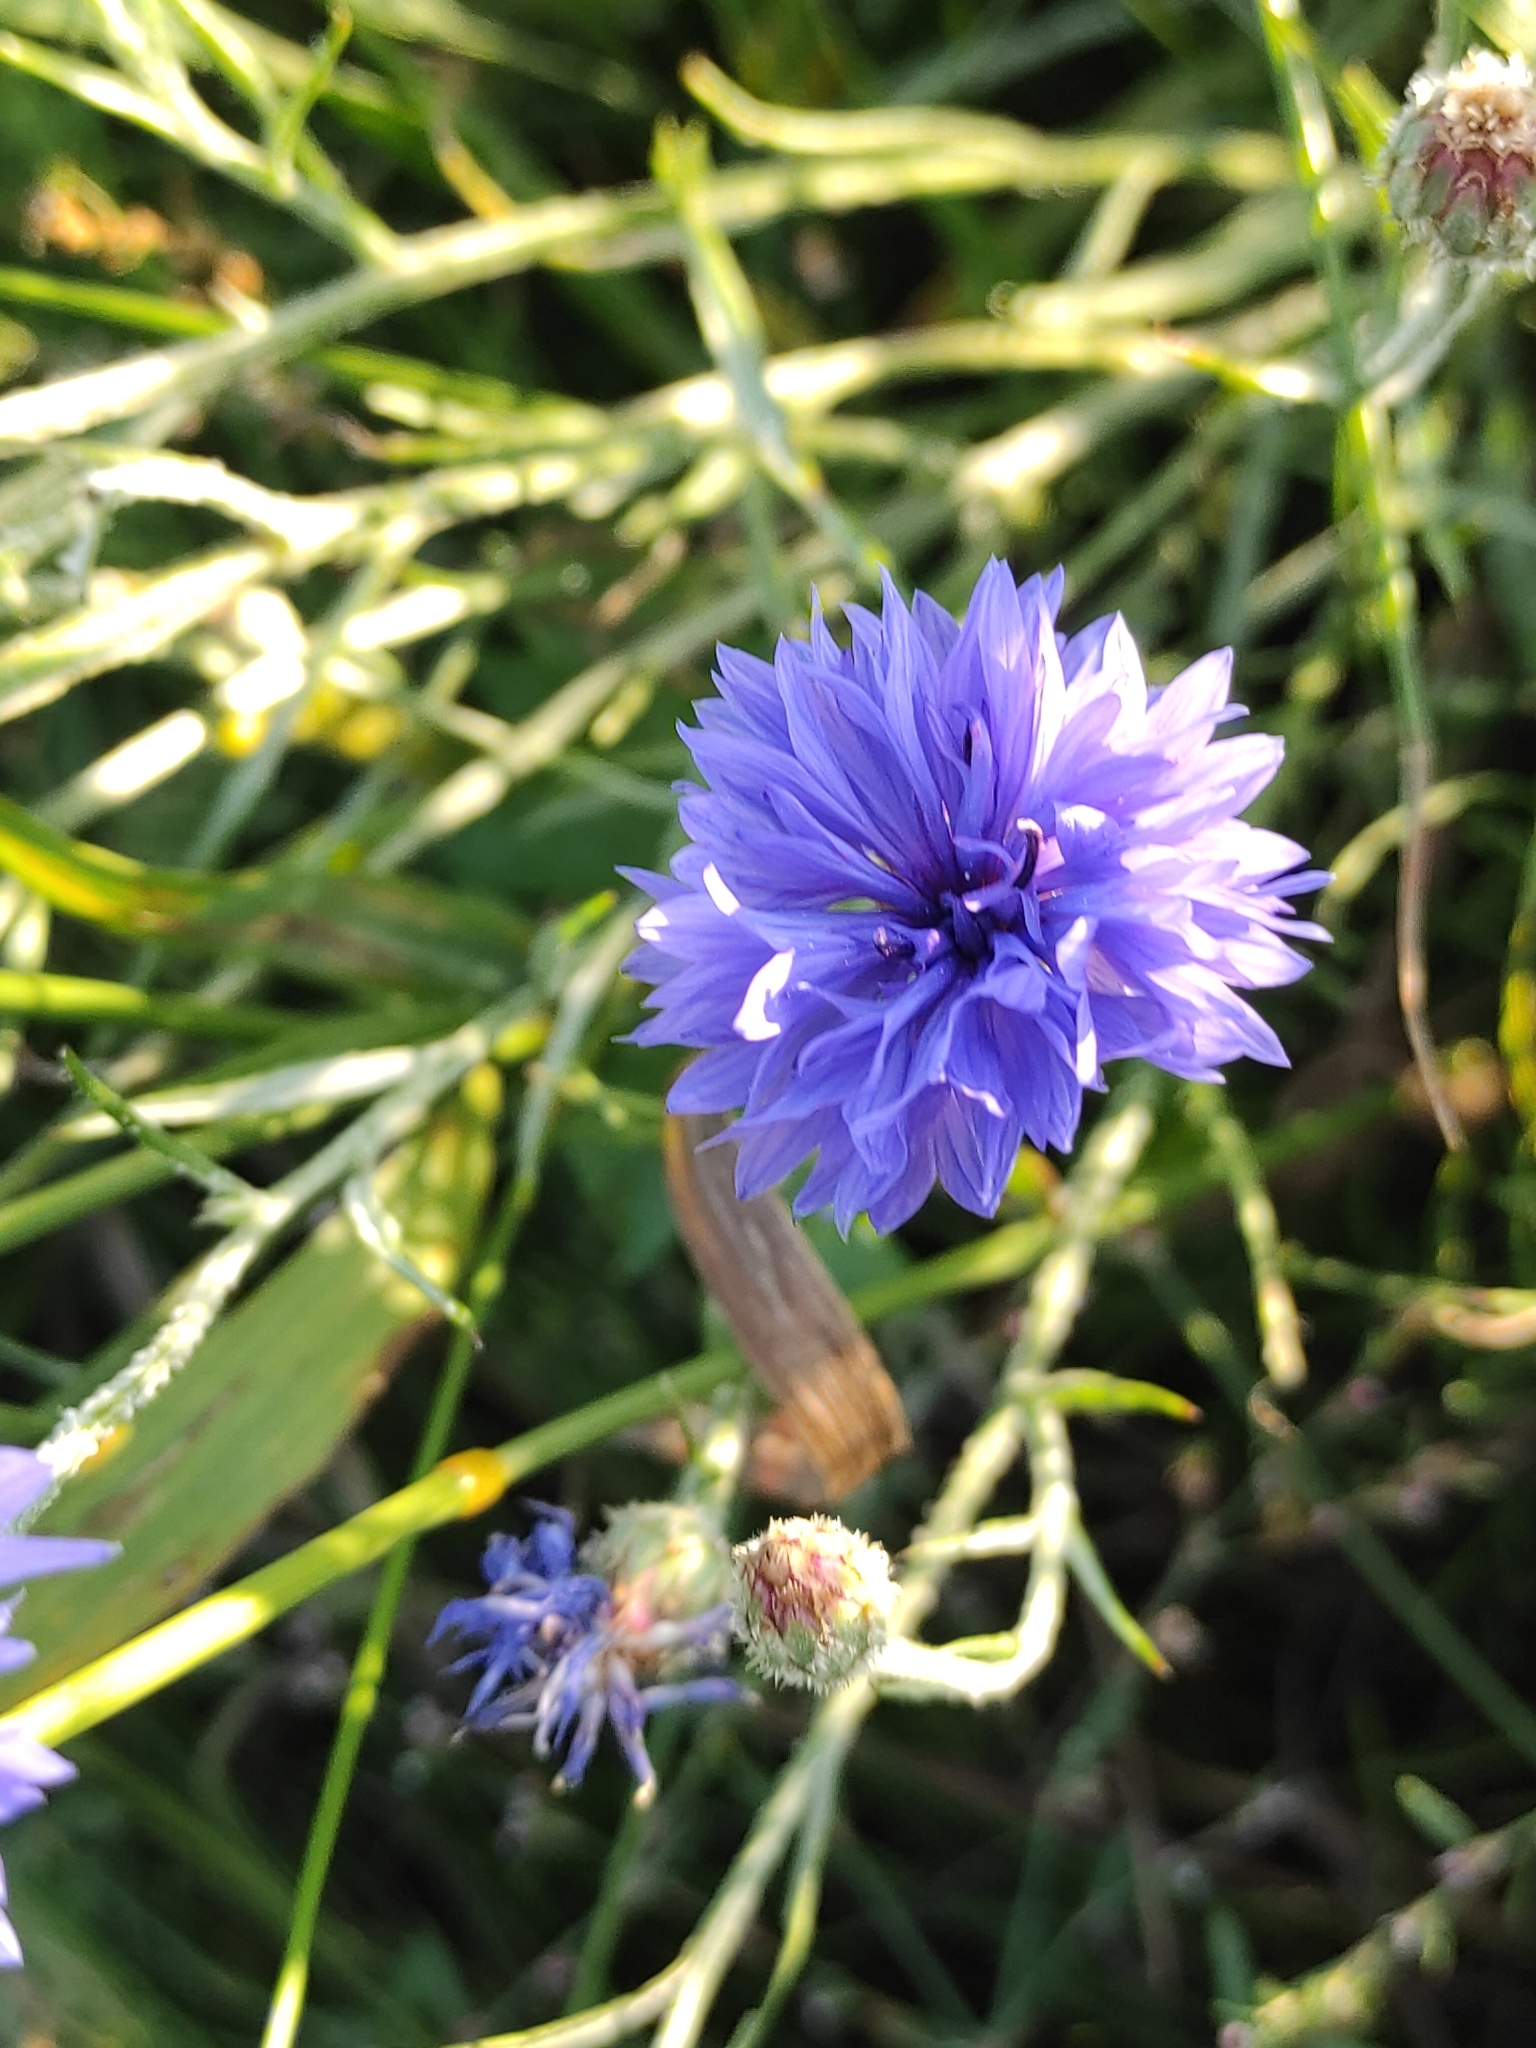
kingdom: Plantae
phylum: Tracheophyta
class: Magnoliopsida
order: Asterales
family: Asteraceae
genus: Centaurea
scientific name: Centaurea cyanus
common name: Cornflower
